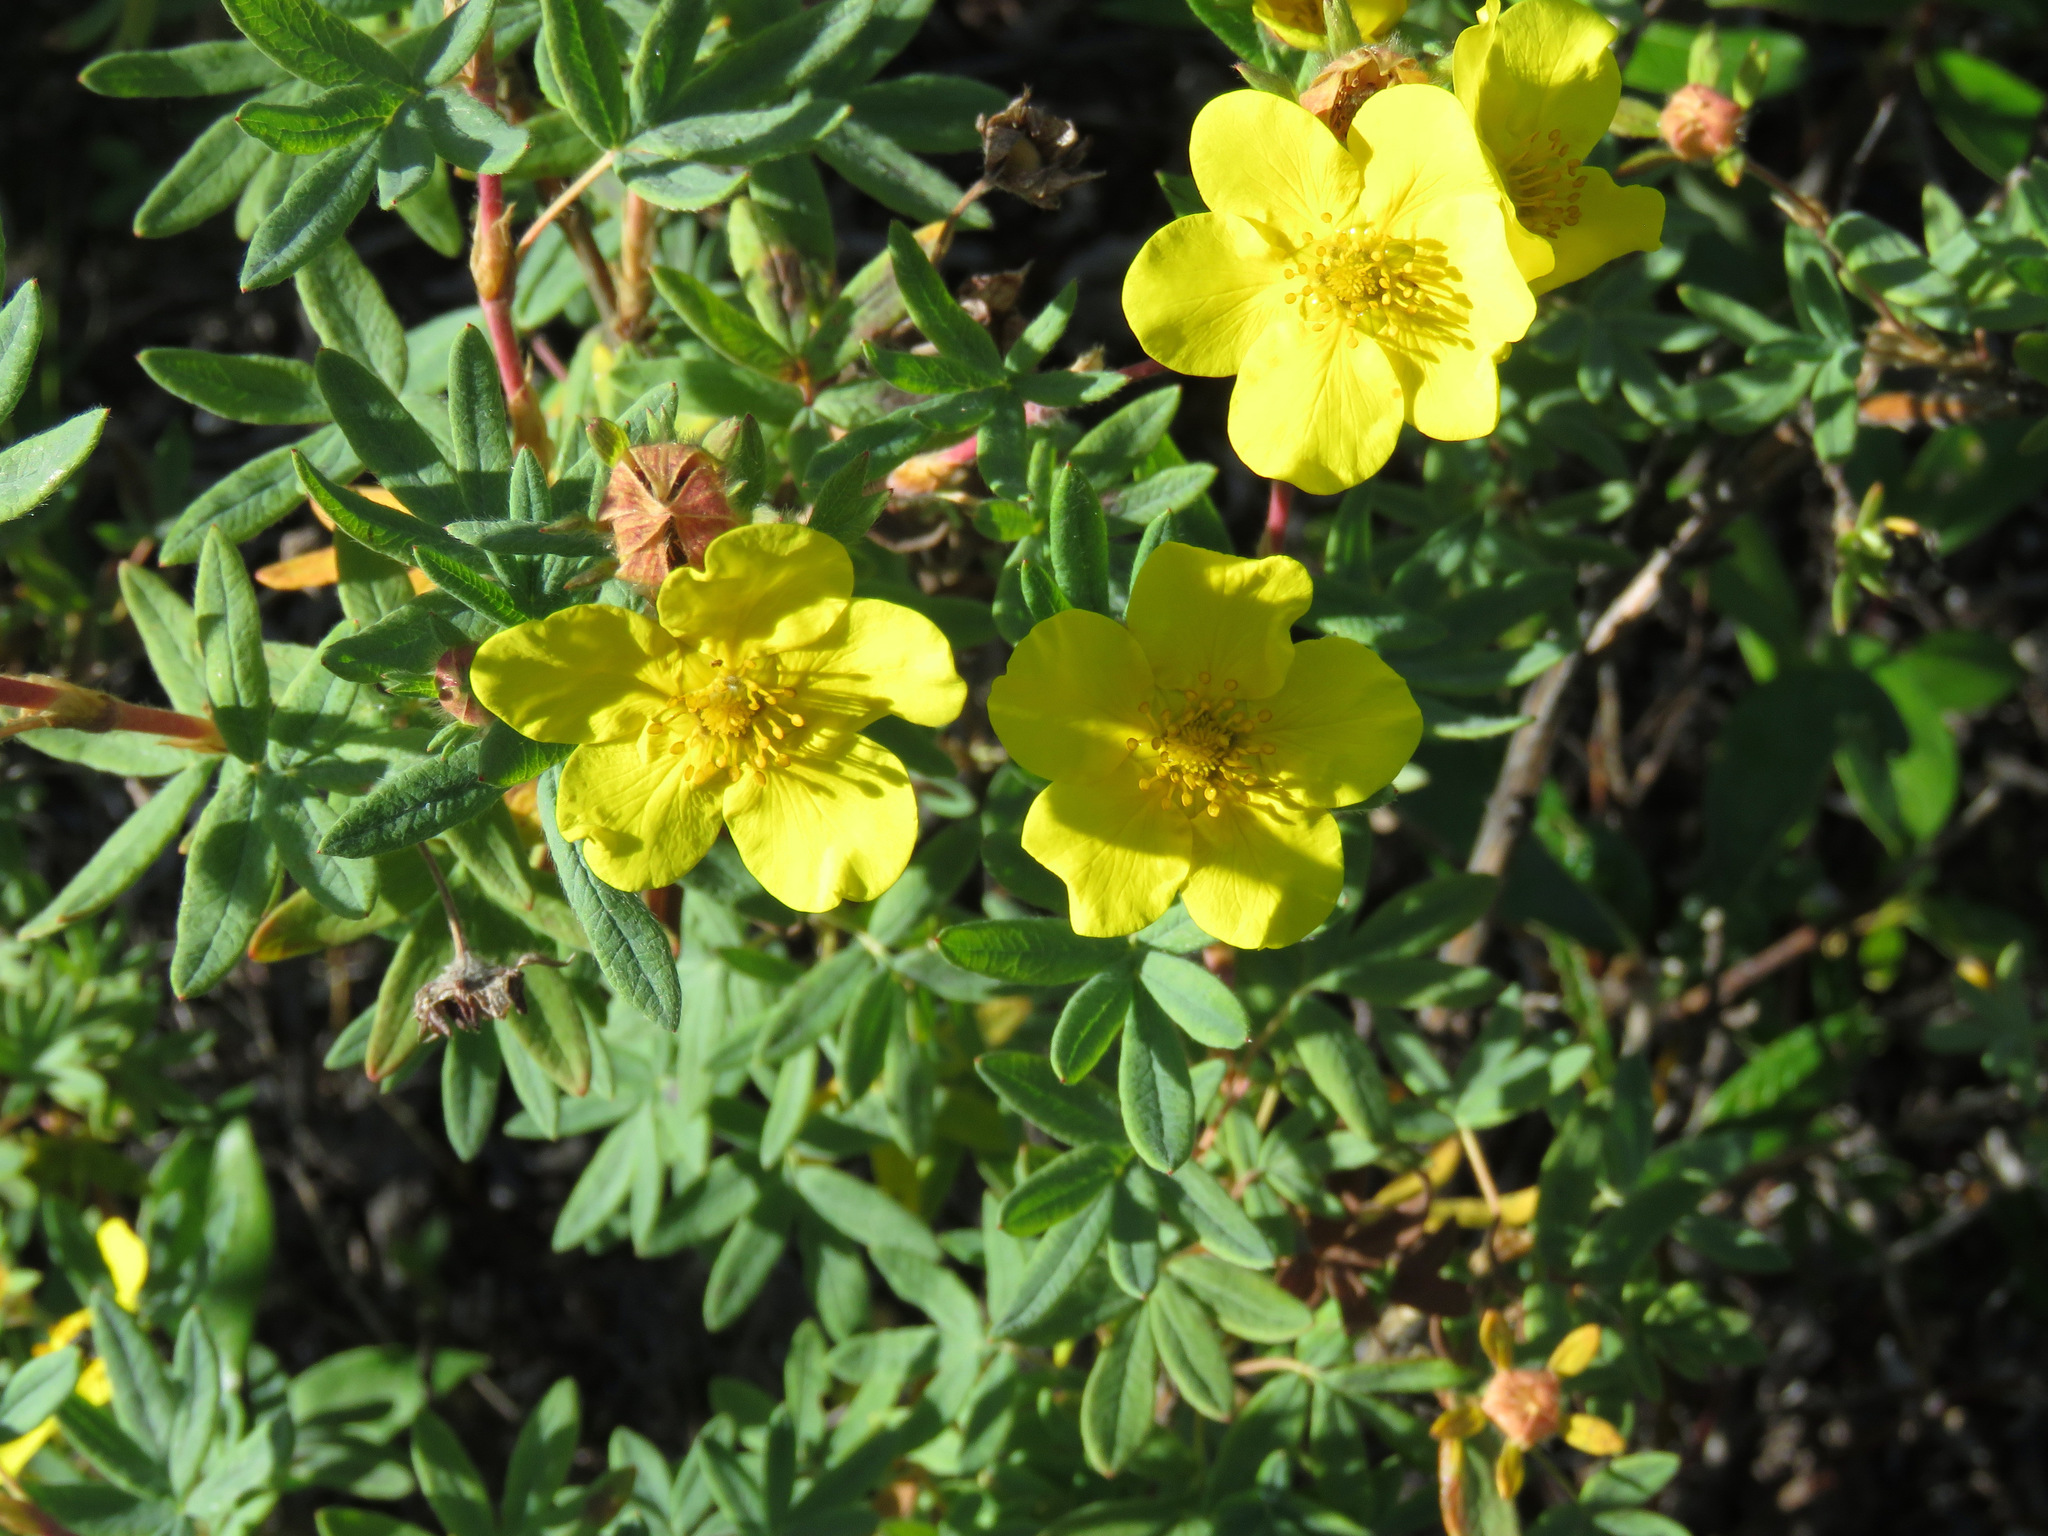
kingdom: Plantae
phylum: Tracheophyta
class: Magnoliopsida
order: Rosales
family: Rosaceae
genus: Dasiphora
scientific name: Dasiphora fruticosa
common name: Shrubby cinquefoil
